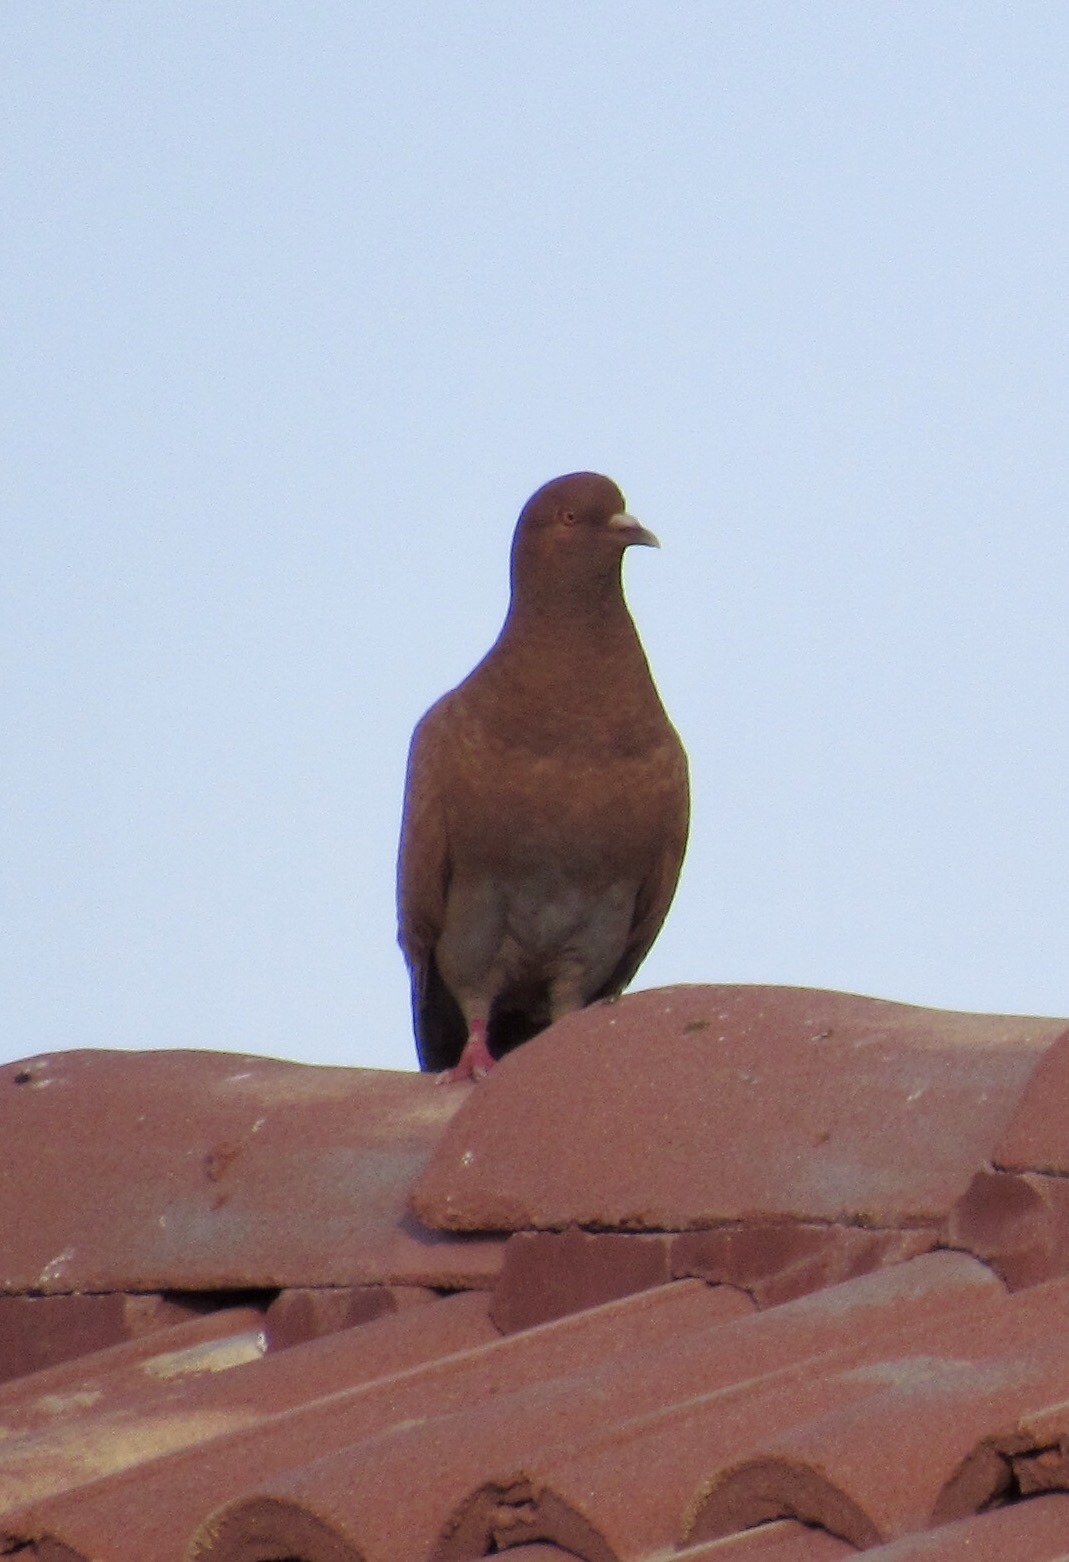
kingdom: Animalia
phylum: Chordata
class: Aves
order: Columbiformes
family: Columbidae
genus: Columba
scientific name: Columba livia
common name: Rock pigeon
